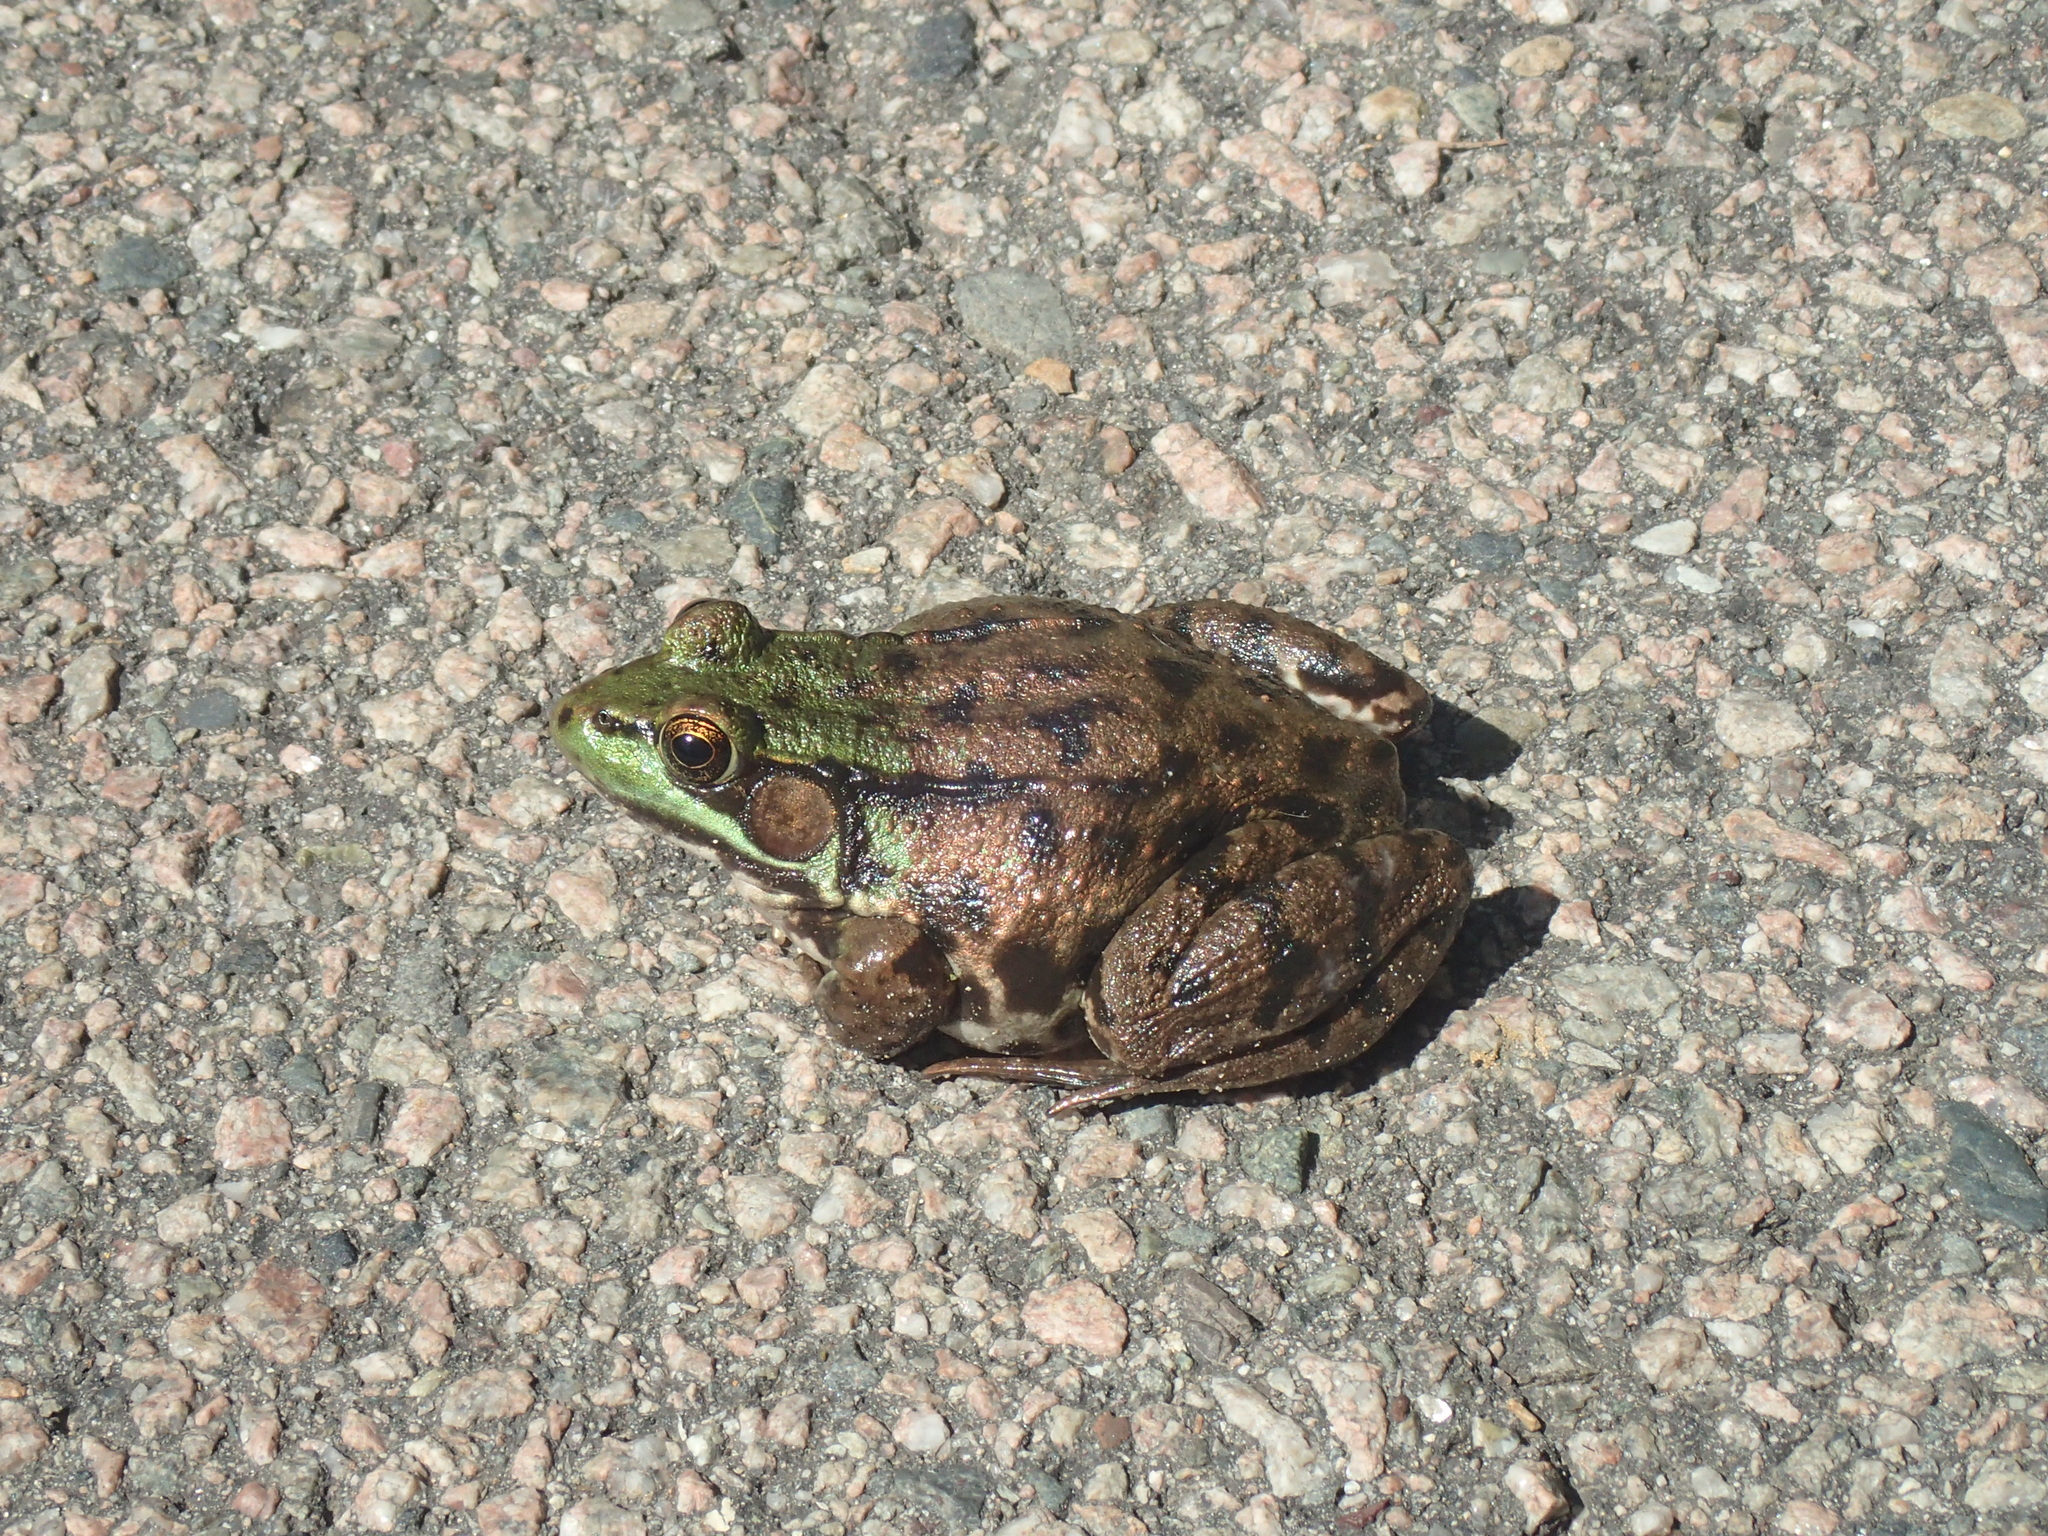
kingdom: Animalia
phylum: Chordata
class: Amphibia
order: Anura
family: Ranidae
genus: Lithobates
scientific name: Lithobates clamitans
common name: Green frog
